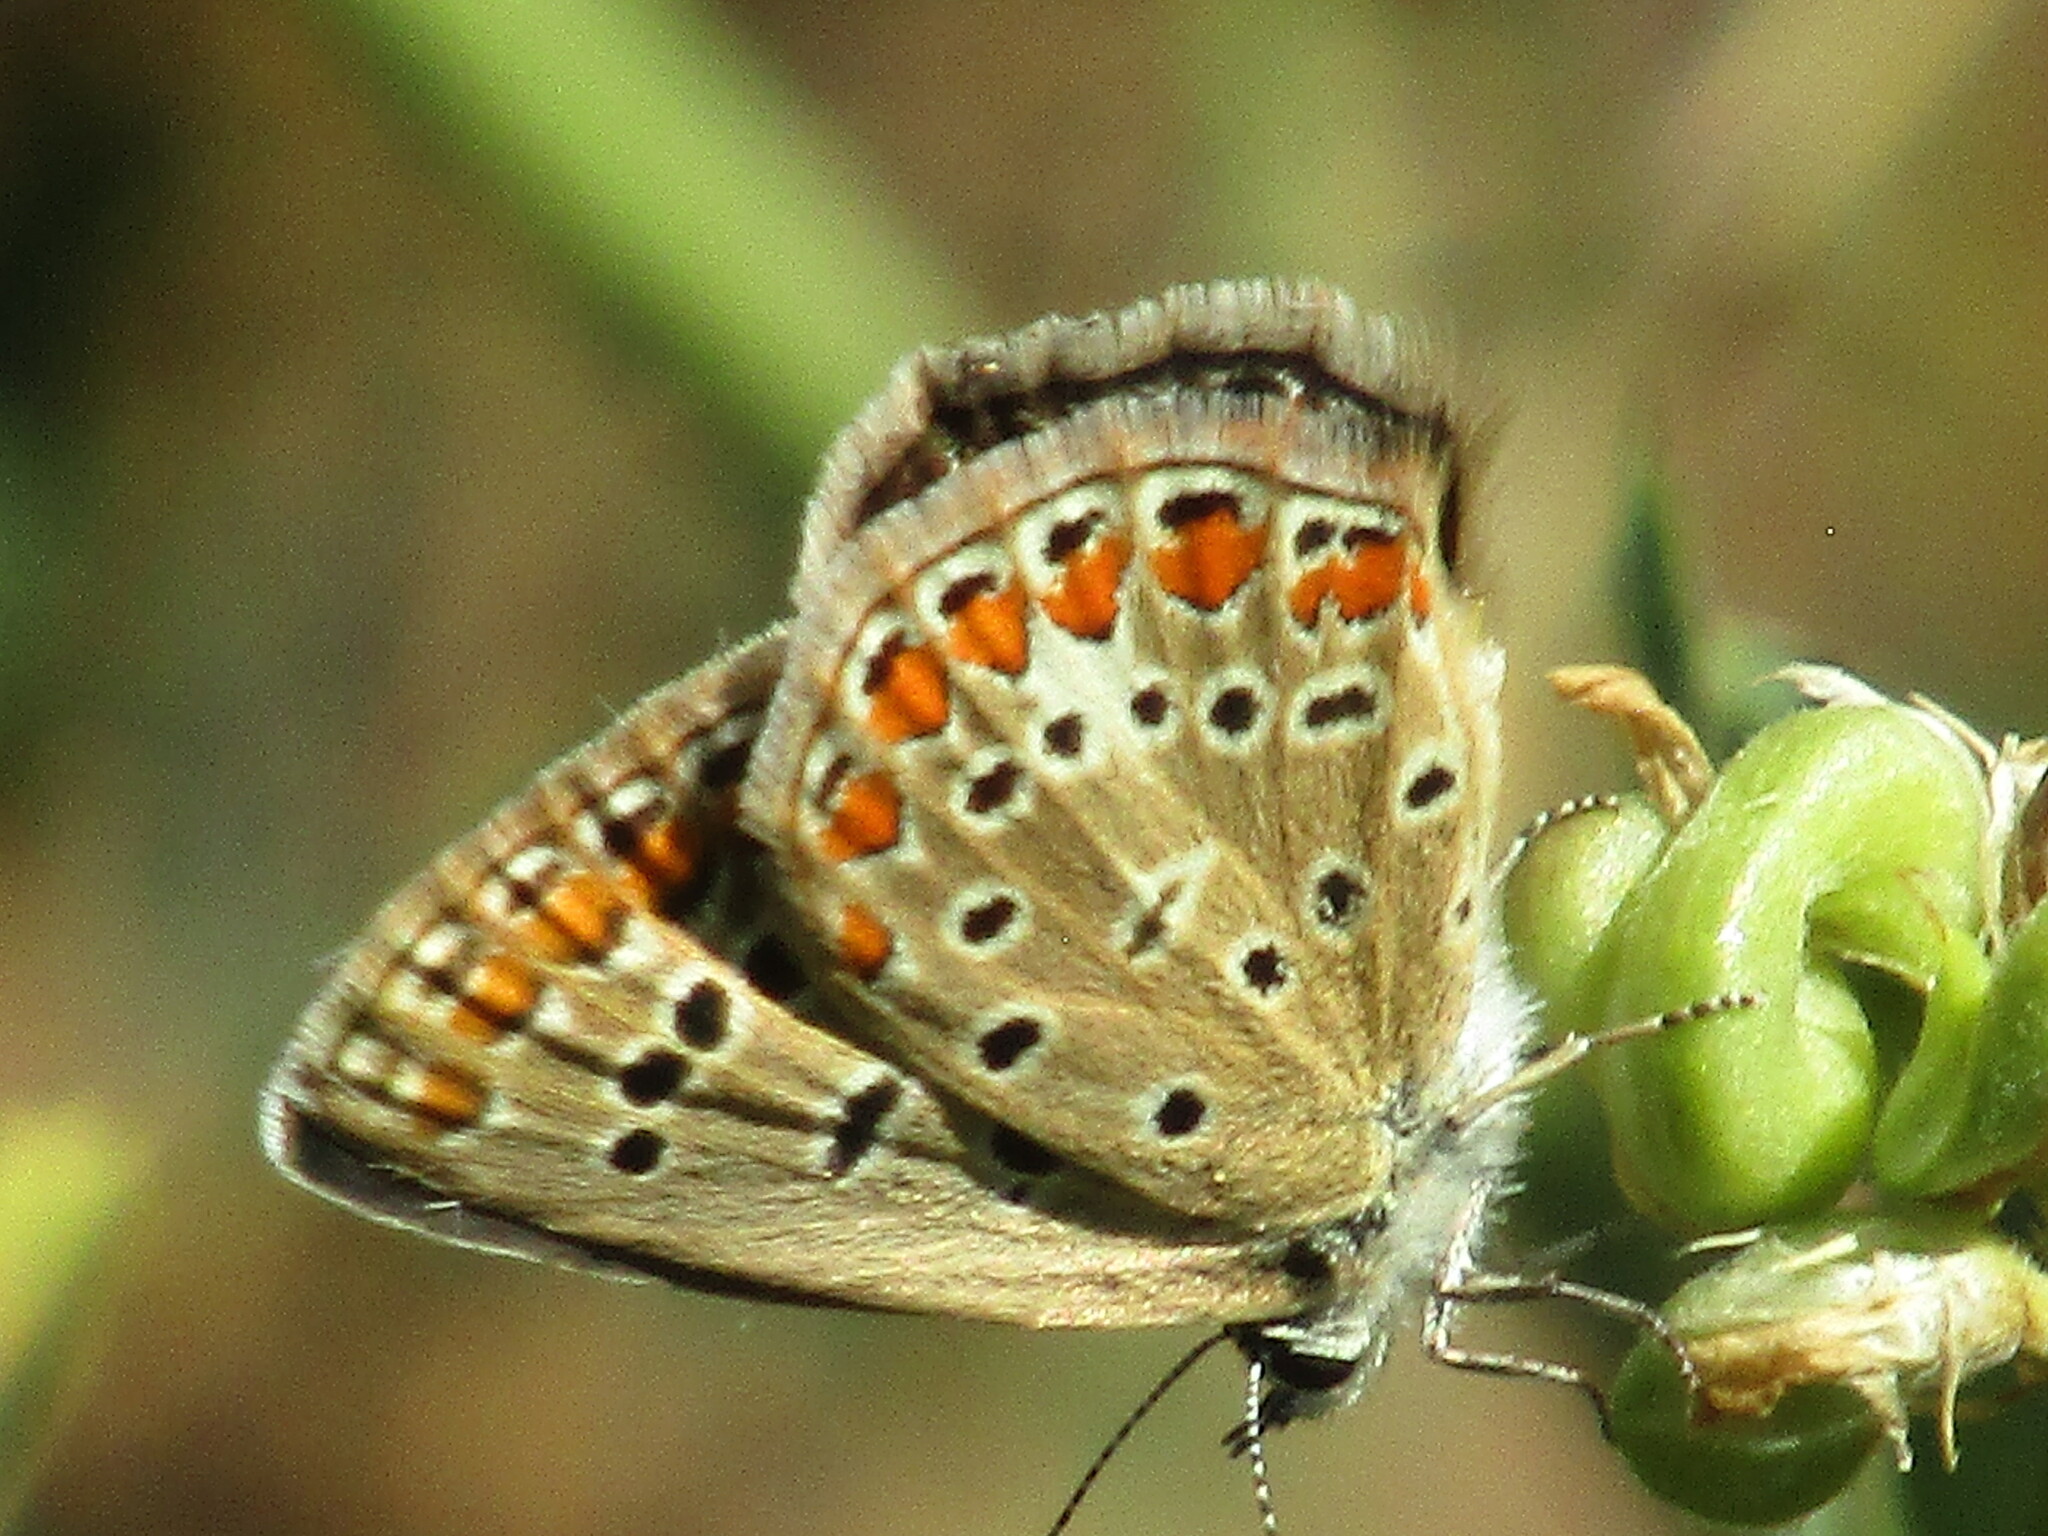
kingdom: Animalia
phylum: Arthropoda
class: Insecta
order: Lepidoptera
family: Lycaenidae
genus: Polyommatus
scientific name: Polyommatus icarus
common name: Common blue
